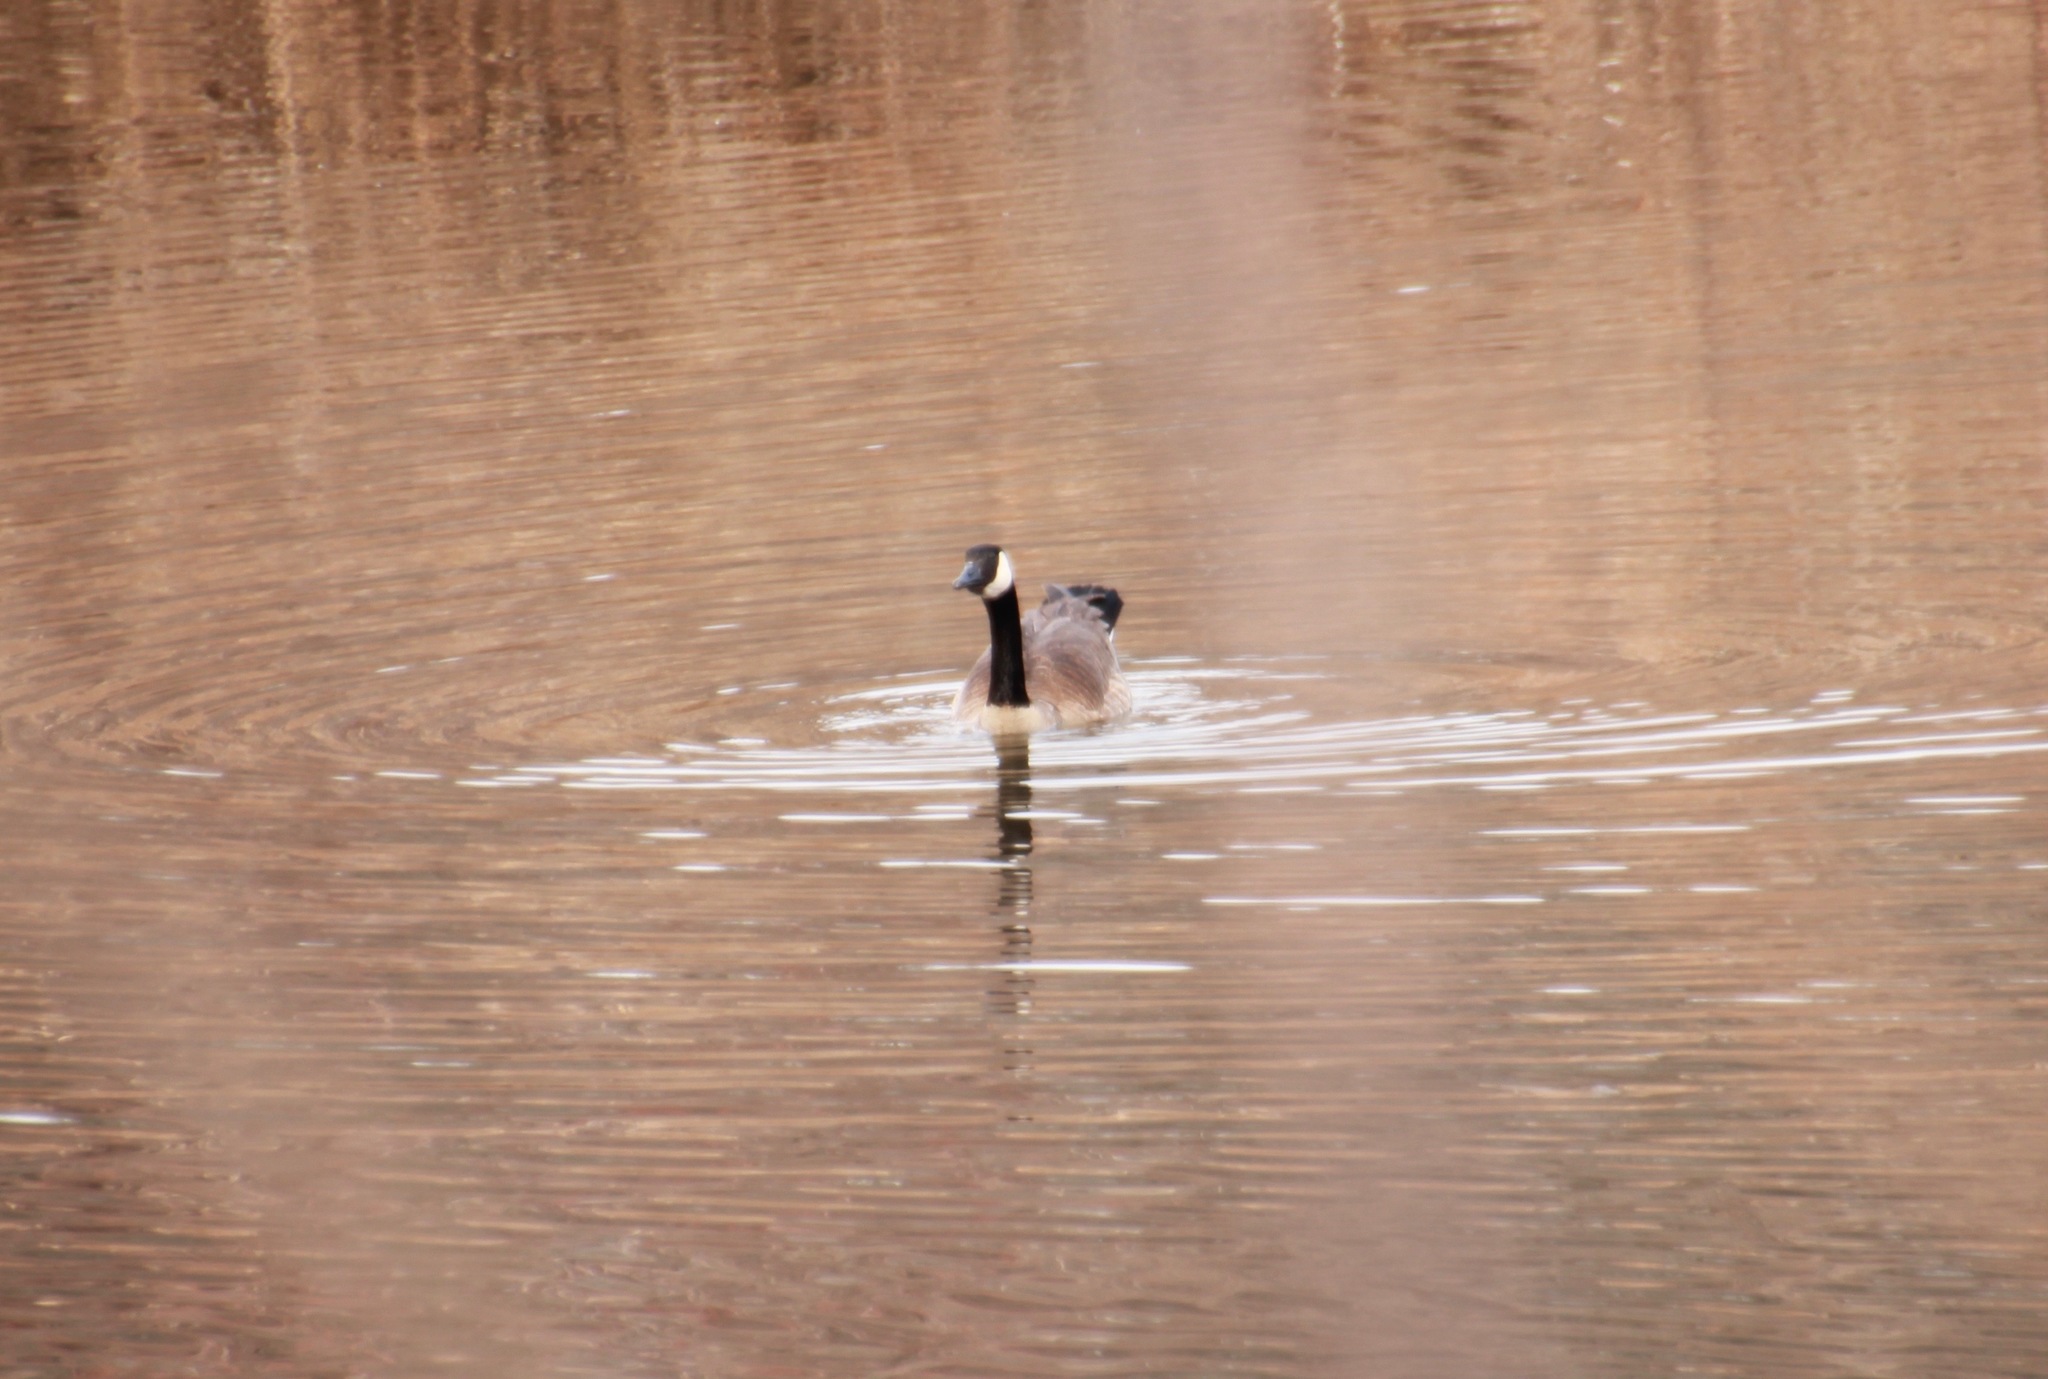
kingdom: Animalia
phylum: Chordata
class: Aves
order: Anseriformes
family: Anatidae
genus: Branta
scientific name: Branta canadensis
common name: Canada goose
